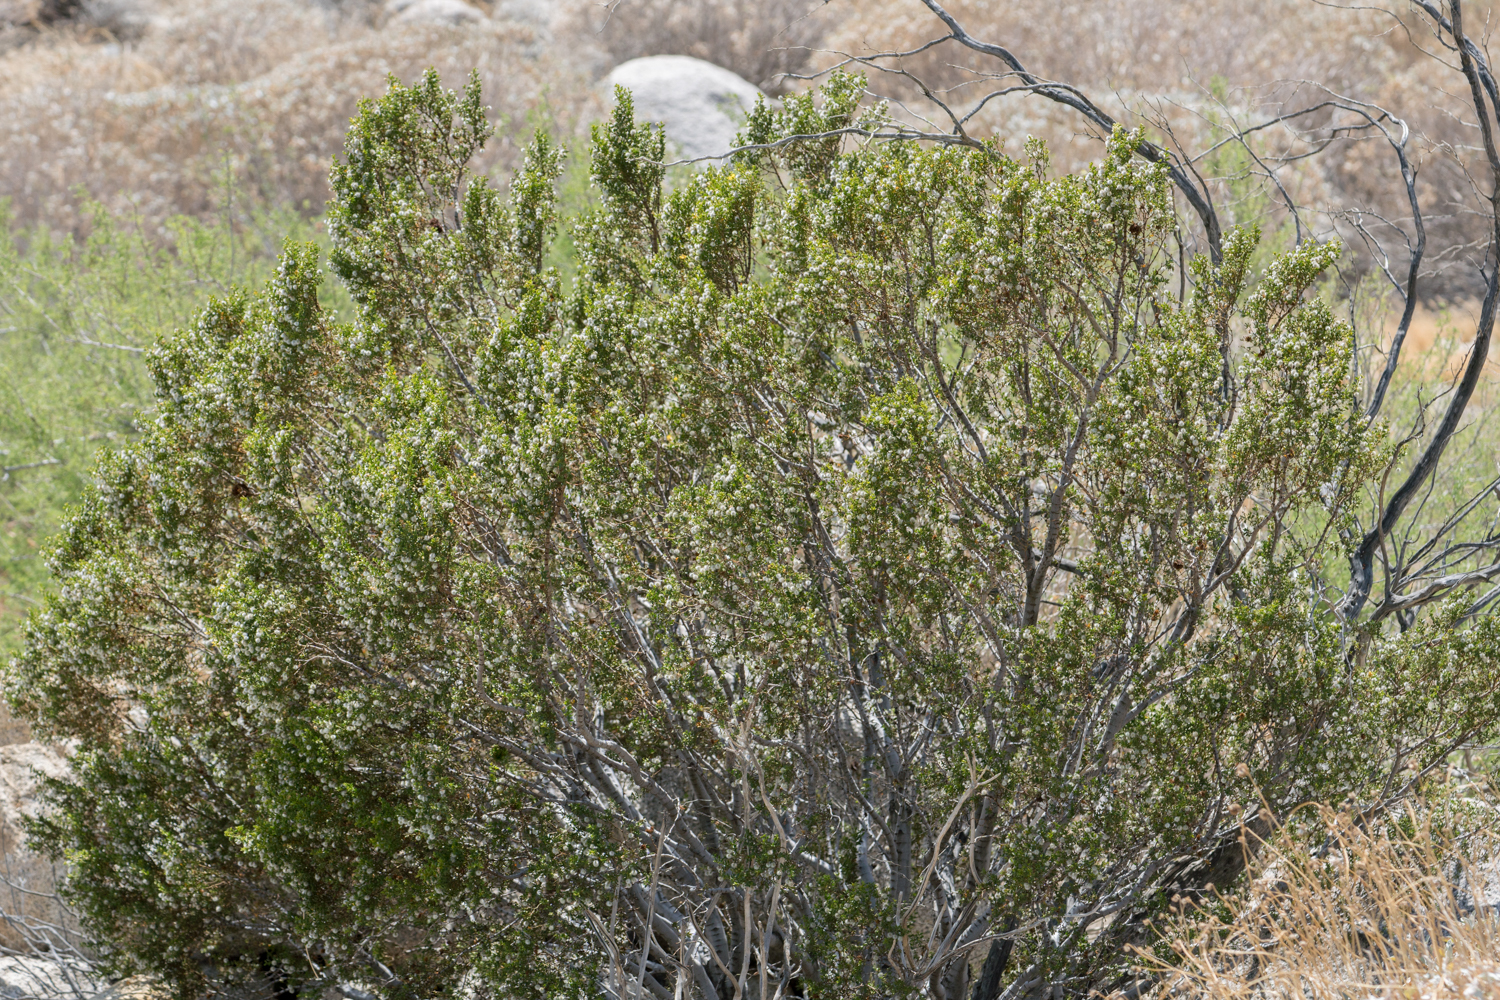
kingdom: Plantae
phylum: Tracheophyta
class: Magnoliopsida
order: Zygophyllales
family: Zygophyllaceae
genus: Larrea
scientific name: Larrea tridentata
